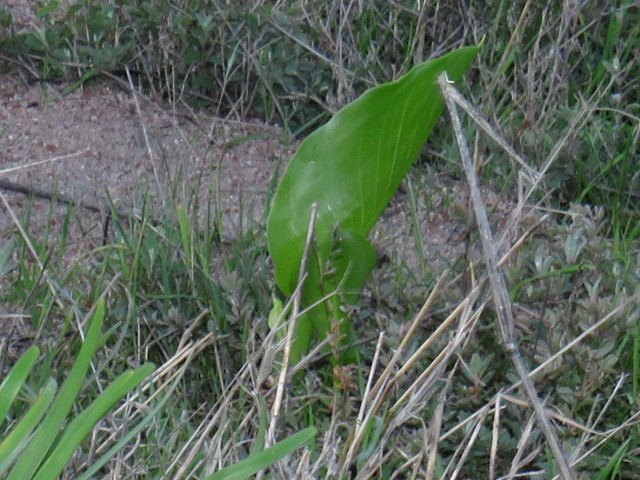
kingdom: Plantae
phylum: Tracheophyta
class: Liliopsida
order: Alismatales
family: Araceae
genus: Zantedeschia
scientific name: Zantedeschia aethiopica
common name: Altar-lily
